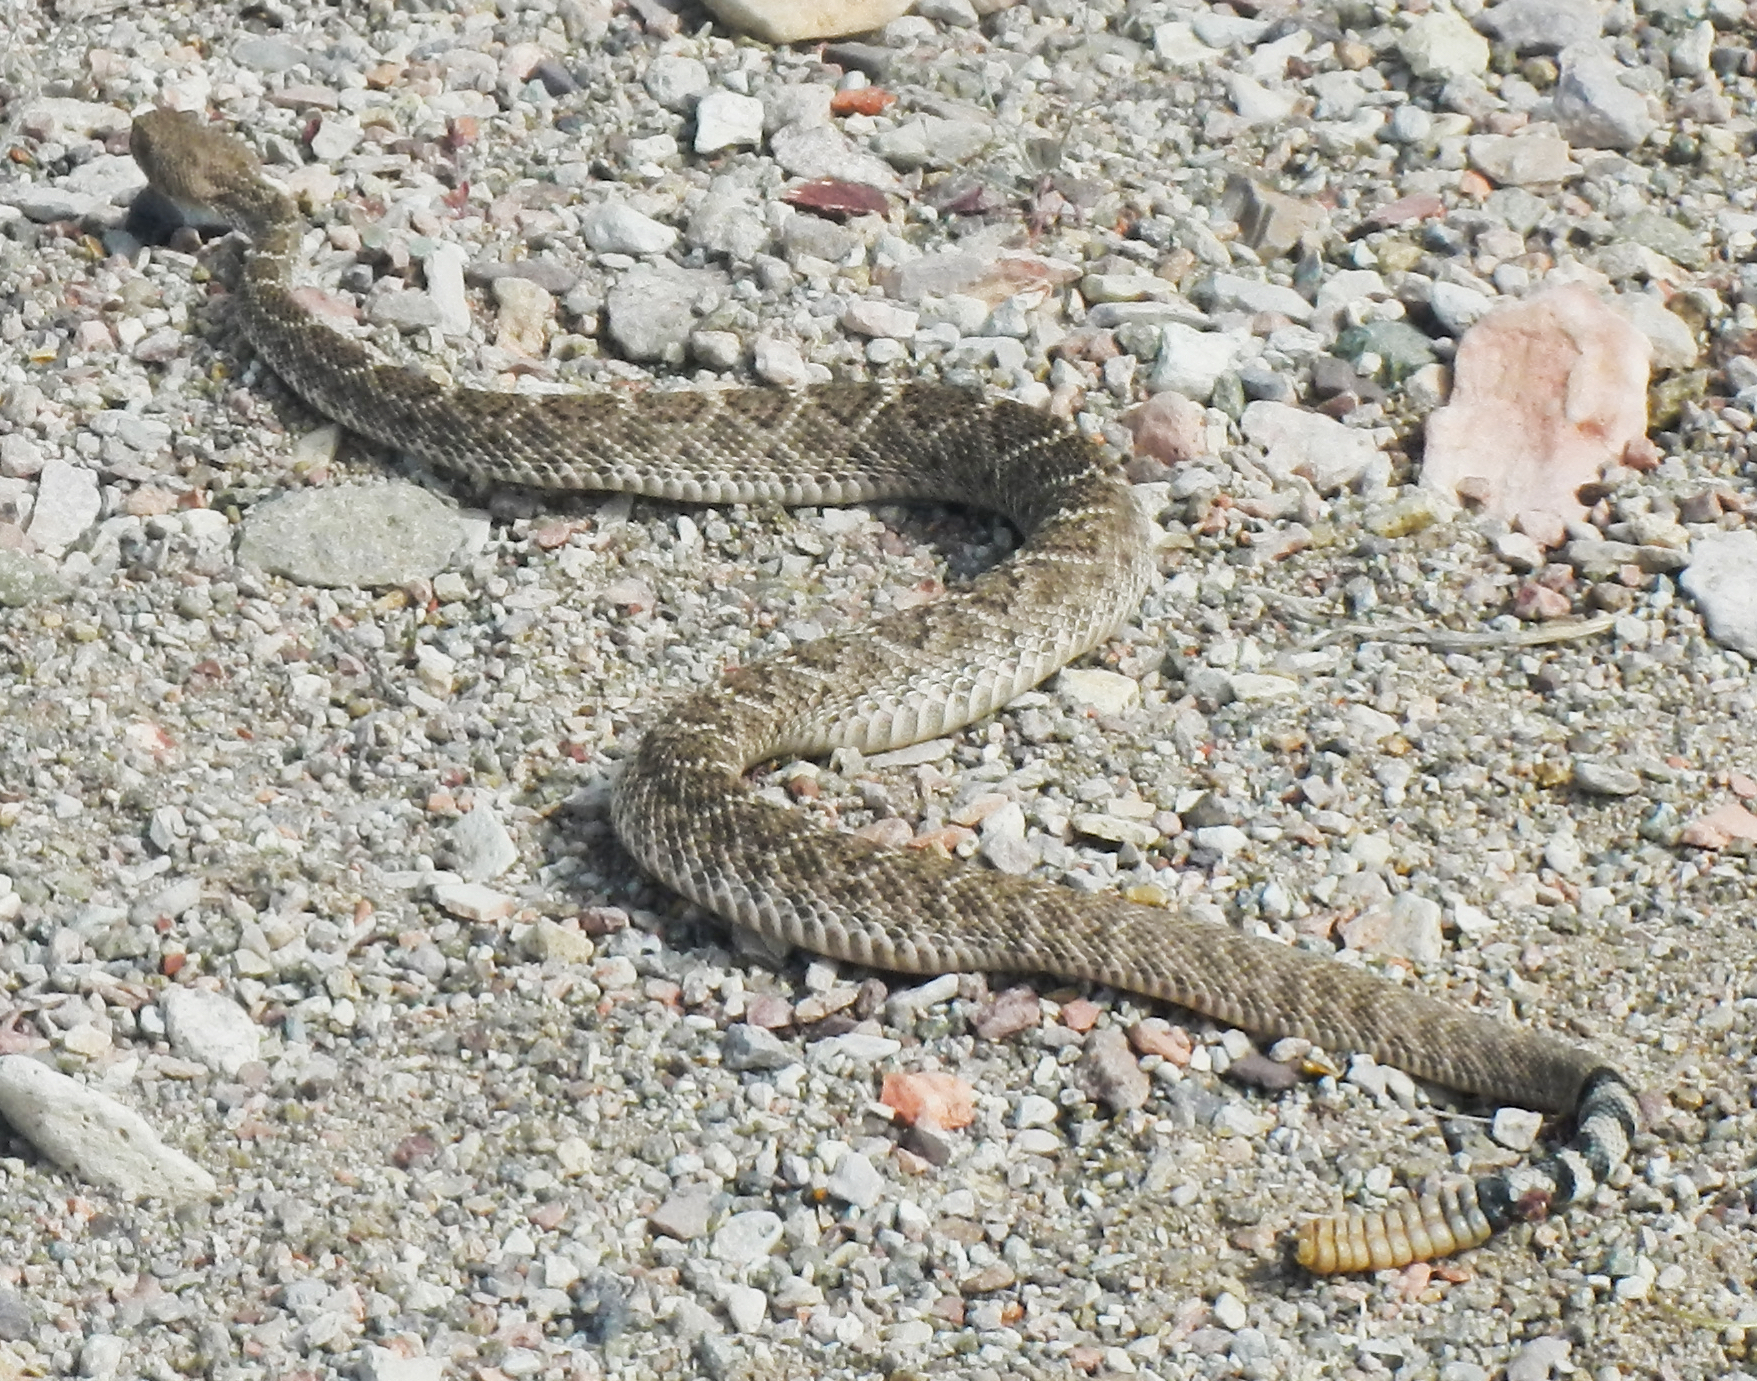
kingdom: Animalia
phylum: Chordata
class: Squamata
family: Viperidae
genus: Crotalus
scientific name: Crotalus atrox
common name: Western diamond-backed rattlesnake
